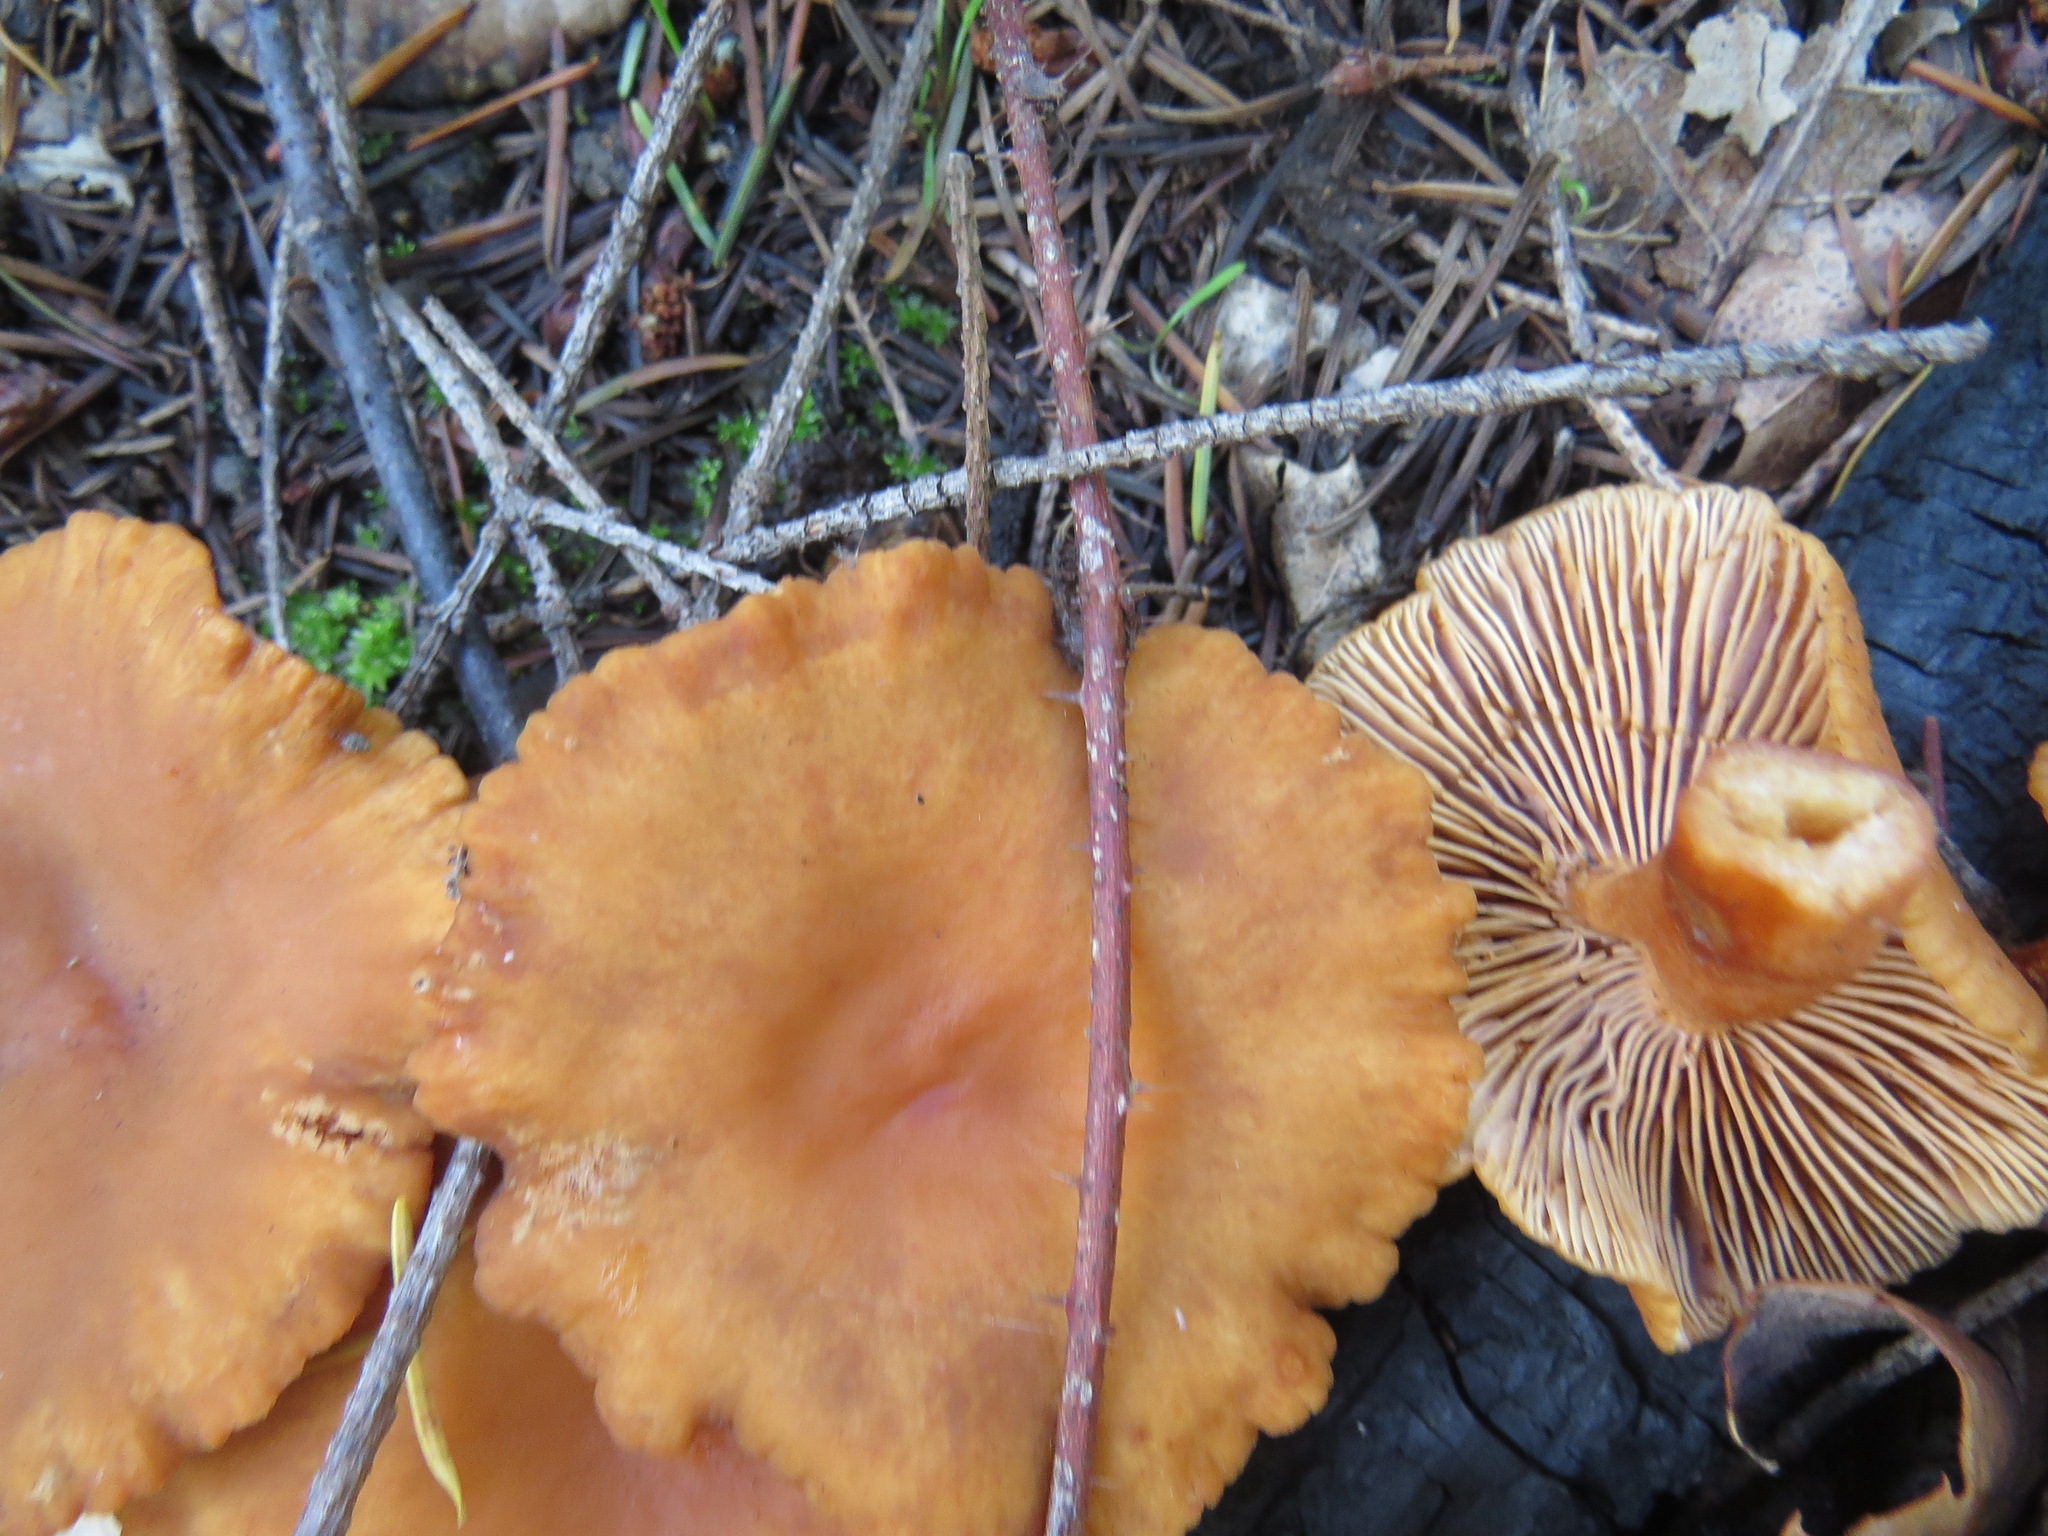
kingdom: Fungi
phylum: Basidiomycota
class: Agaricomycetes
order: Russulales
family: Russulaceae
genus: Lactarius
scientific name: Lactarius rubidus
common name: Candy cap
